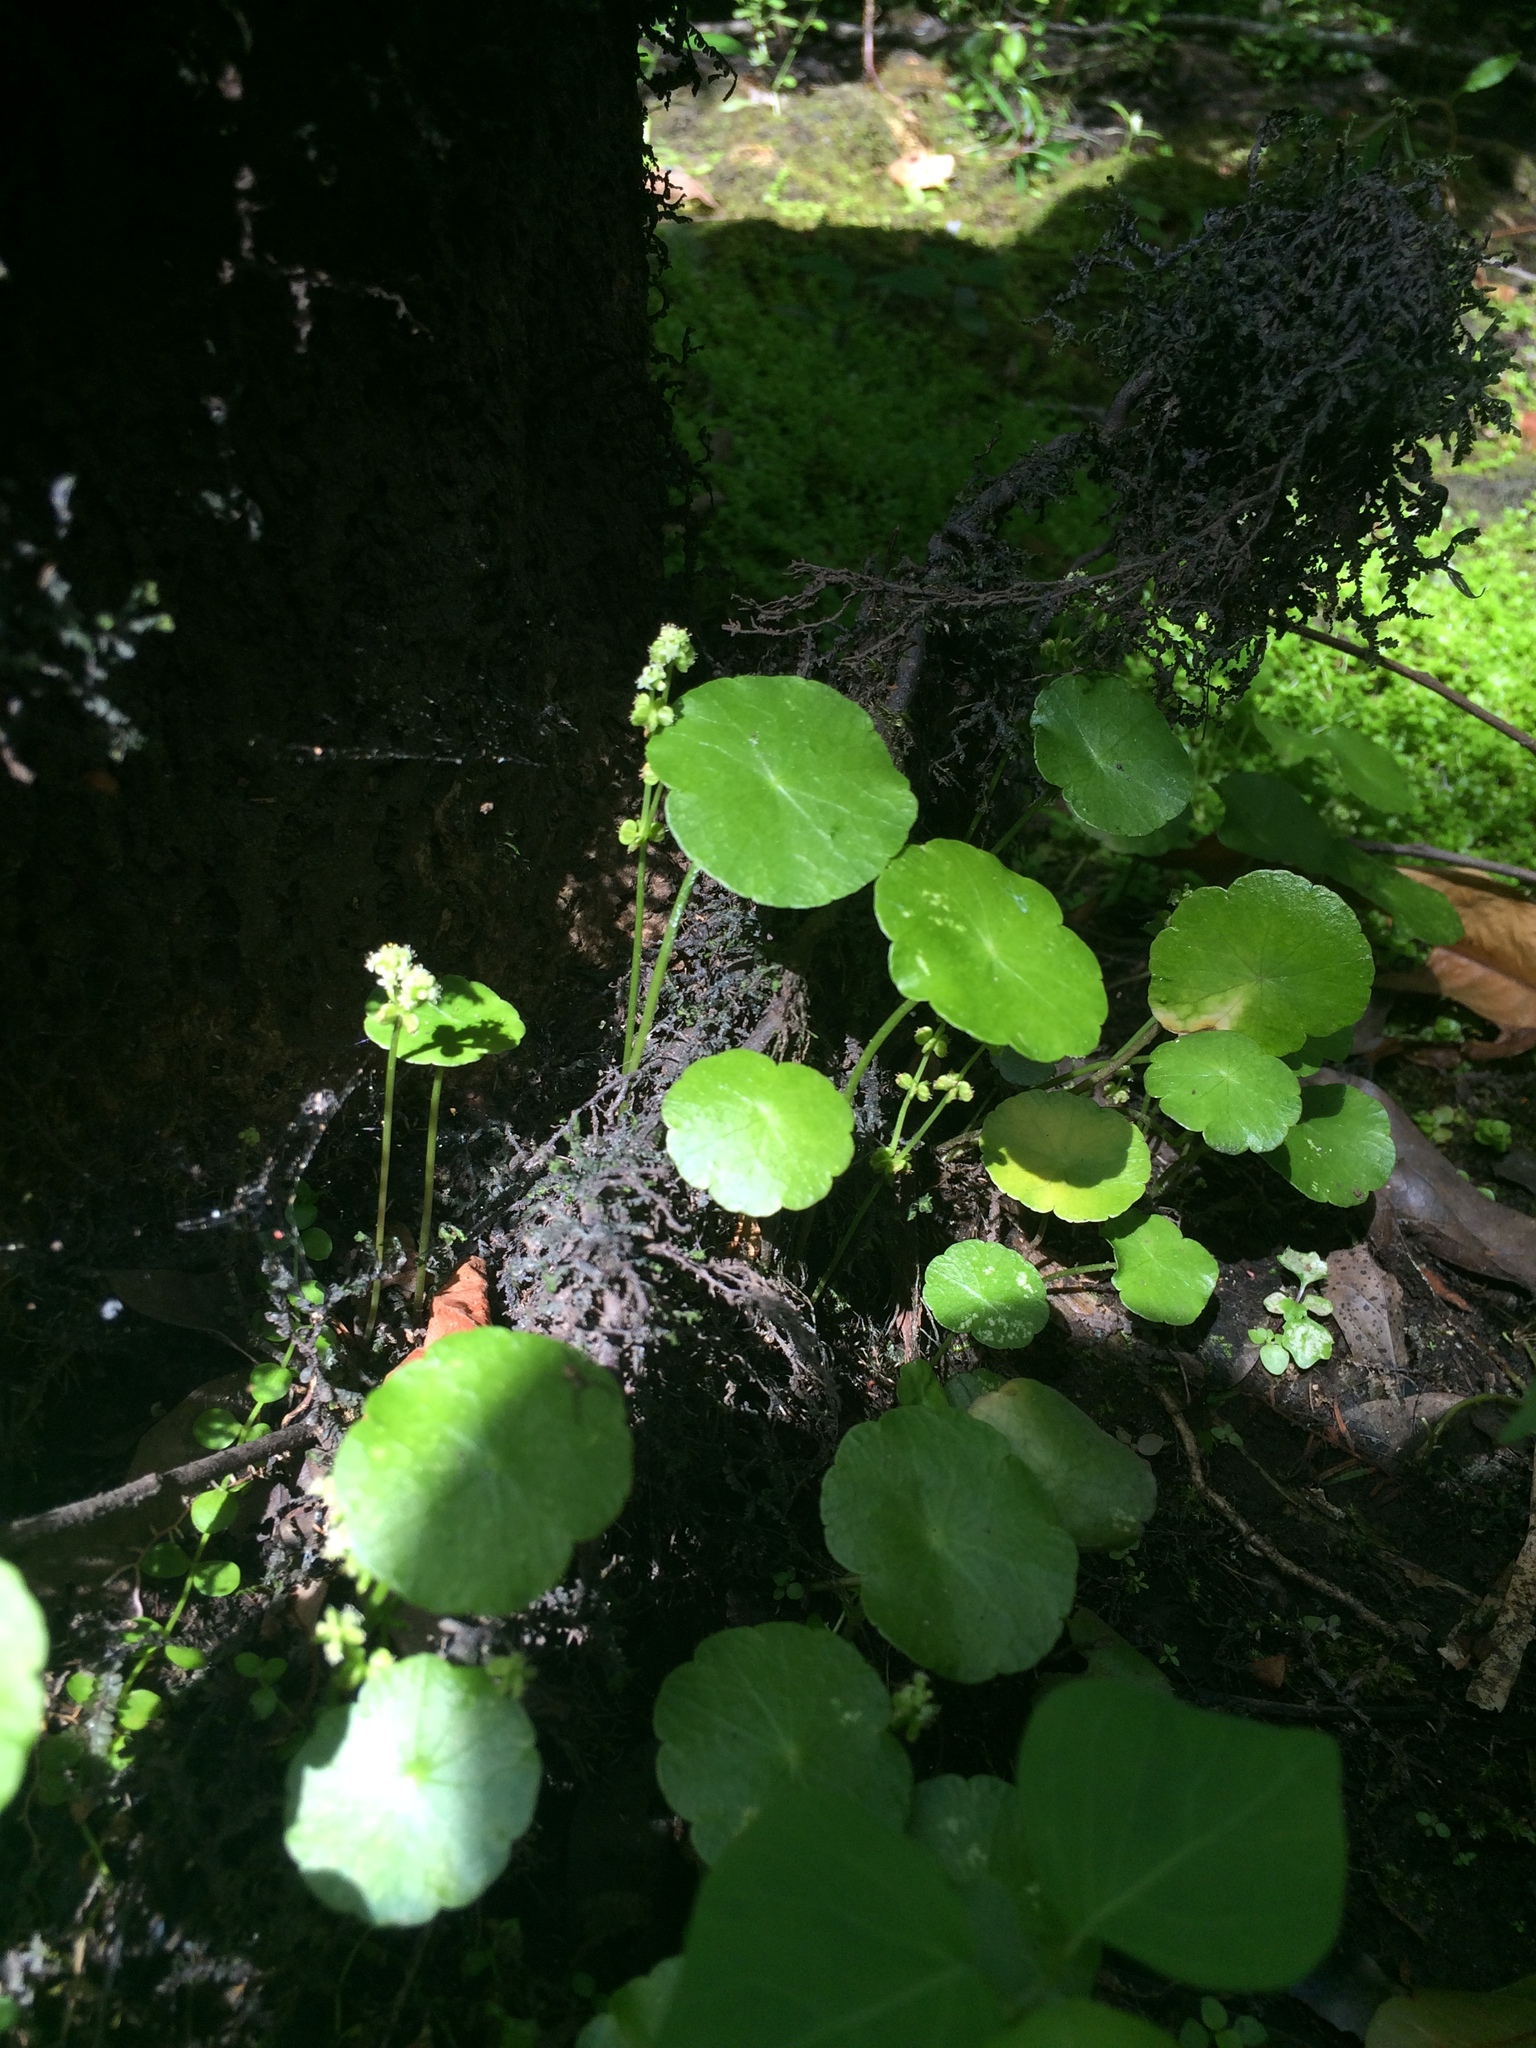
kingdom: Plantae
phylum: Tracheophyta
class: Magnoliopsida
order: Apiales
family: Araliaceae
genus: Hydrocotyle
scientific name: Hydrocotyle verticillata
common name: Whorled marshpennywort
